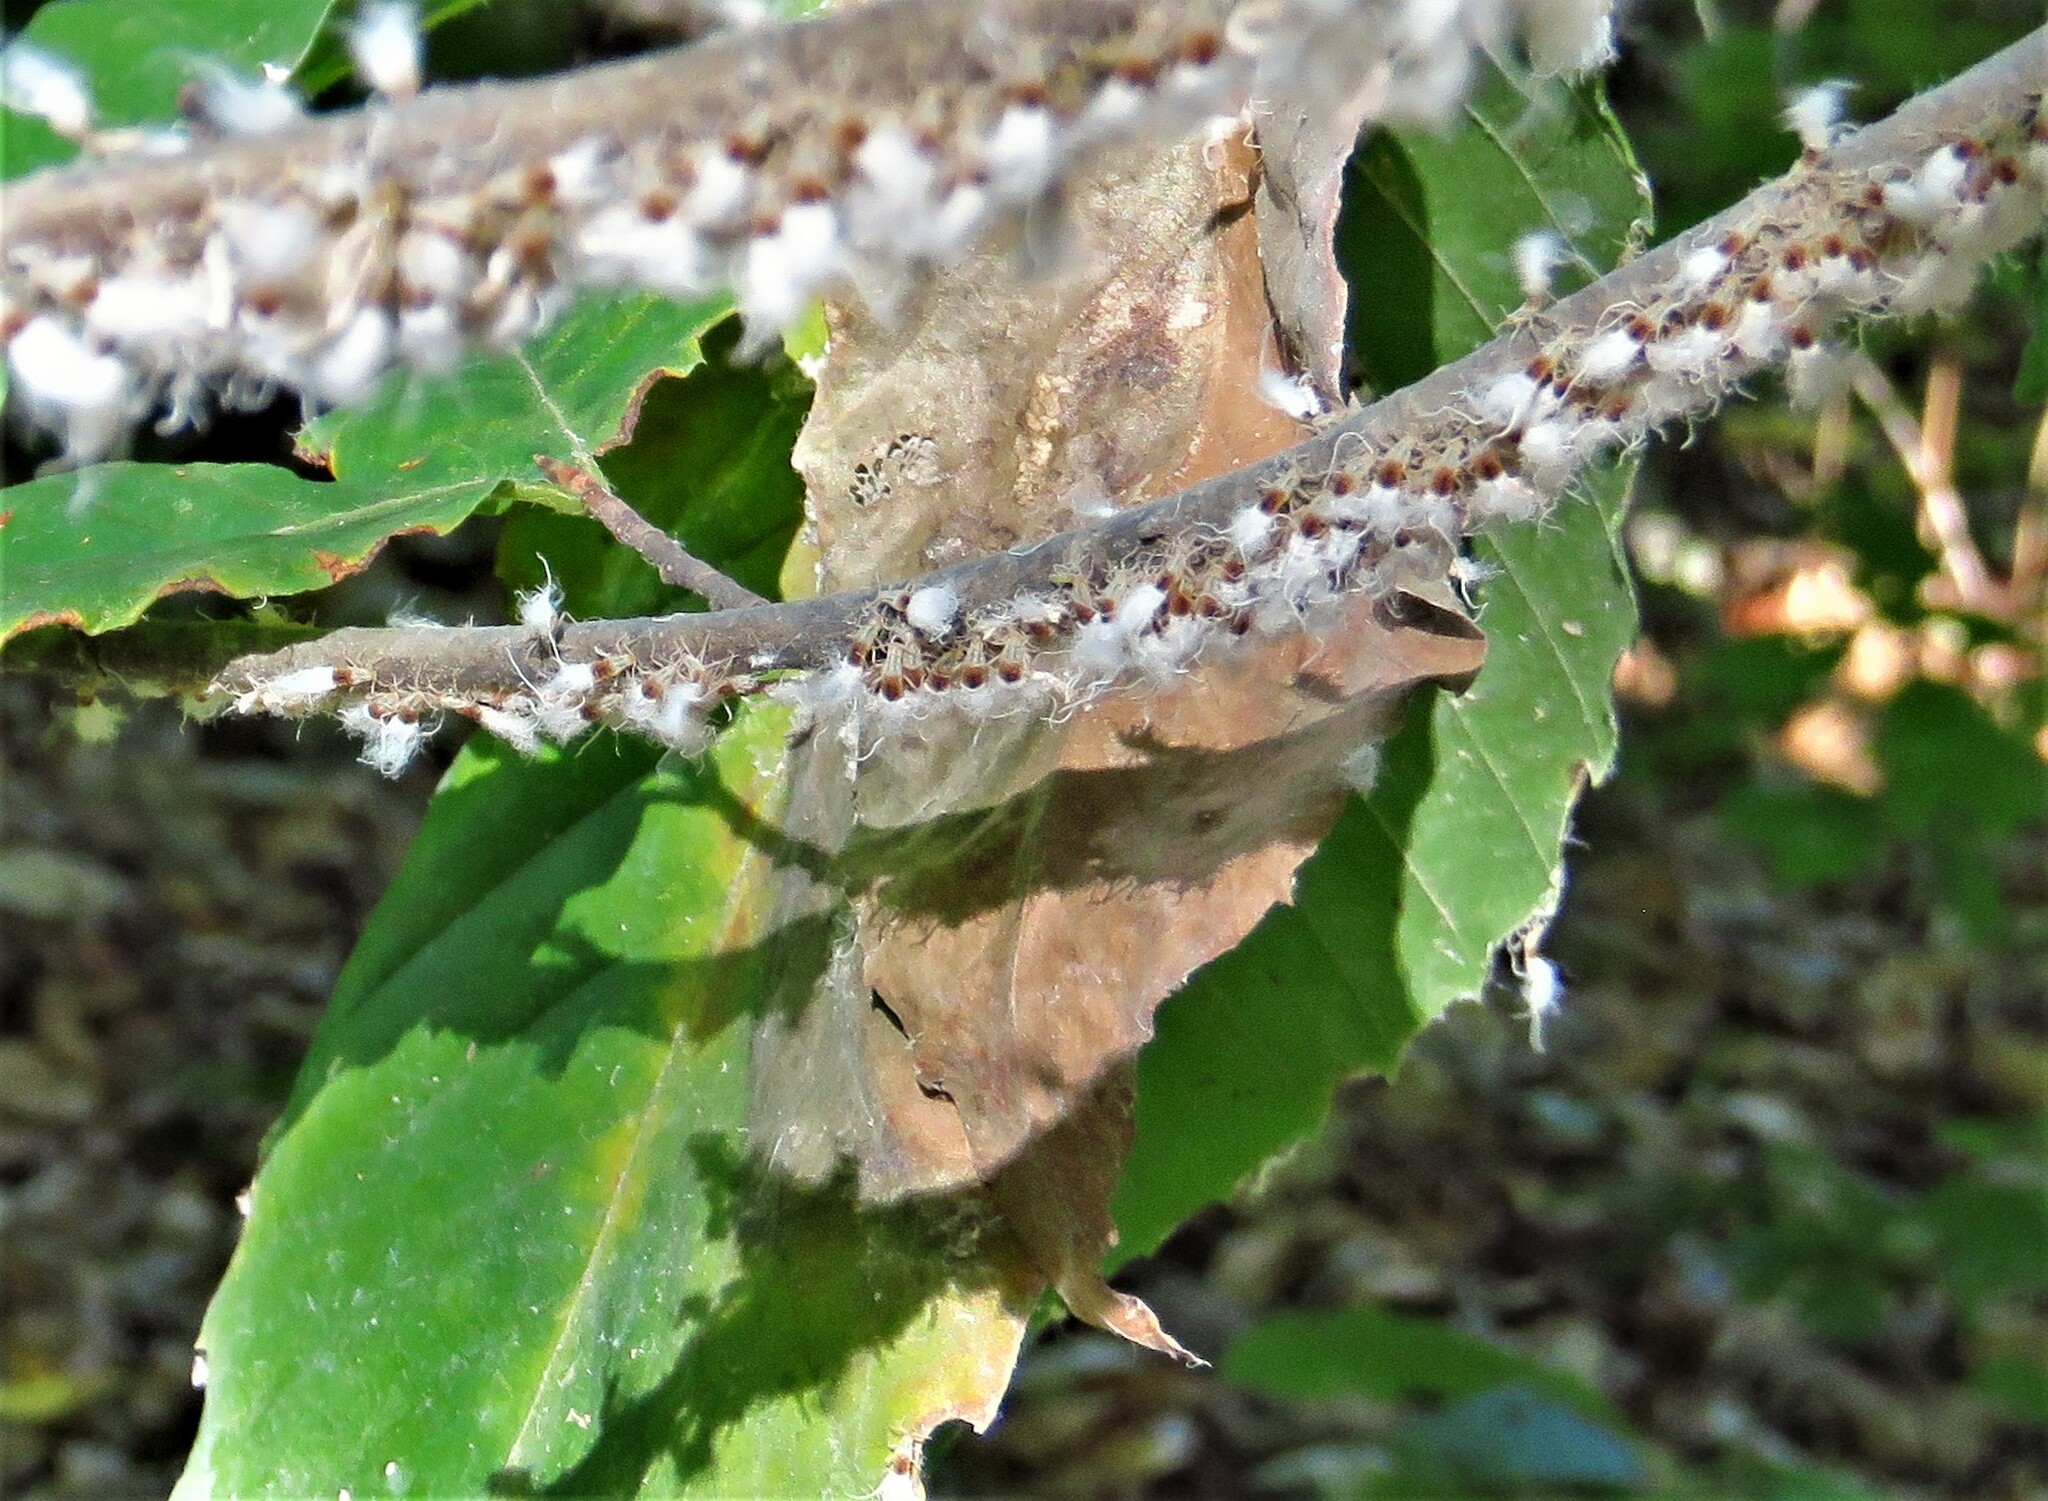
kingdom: Animalia
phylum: Arthropoda
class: Insecta
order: Hemiptera
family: Aphididae
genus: Grylloprociphilus
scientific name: Grylloprociphilus imbricator
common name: Beech blight aphid
